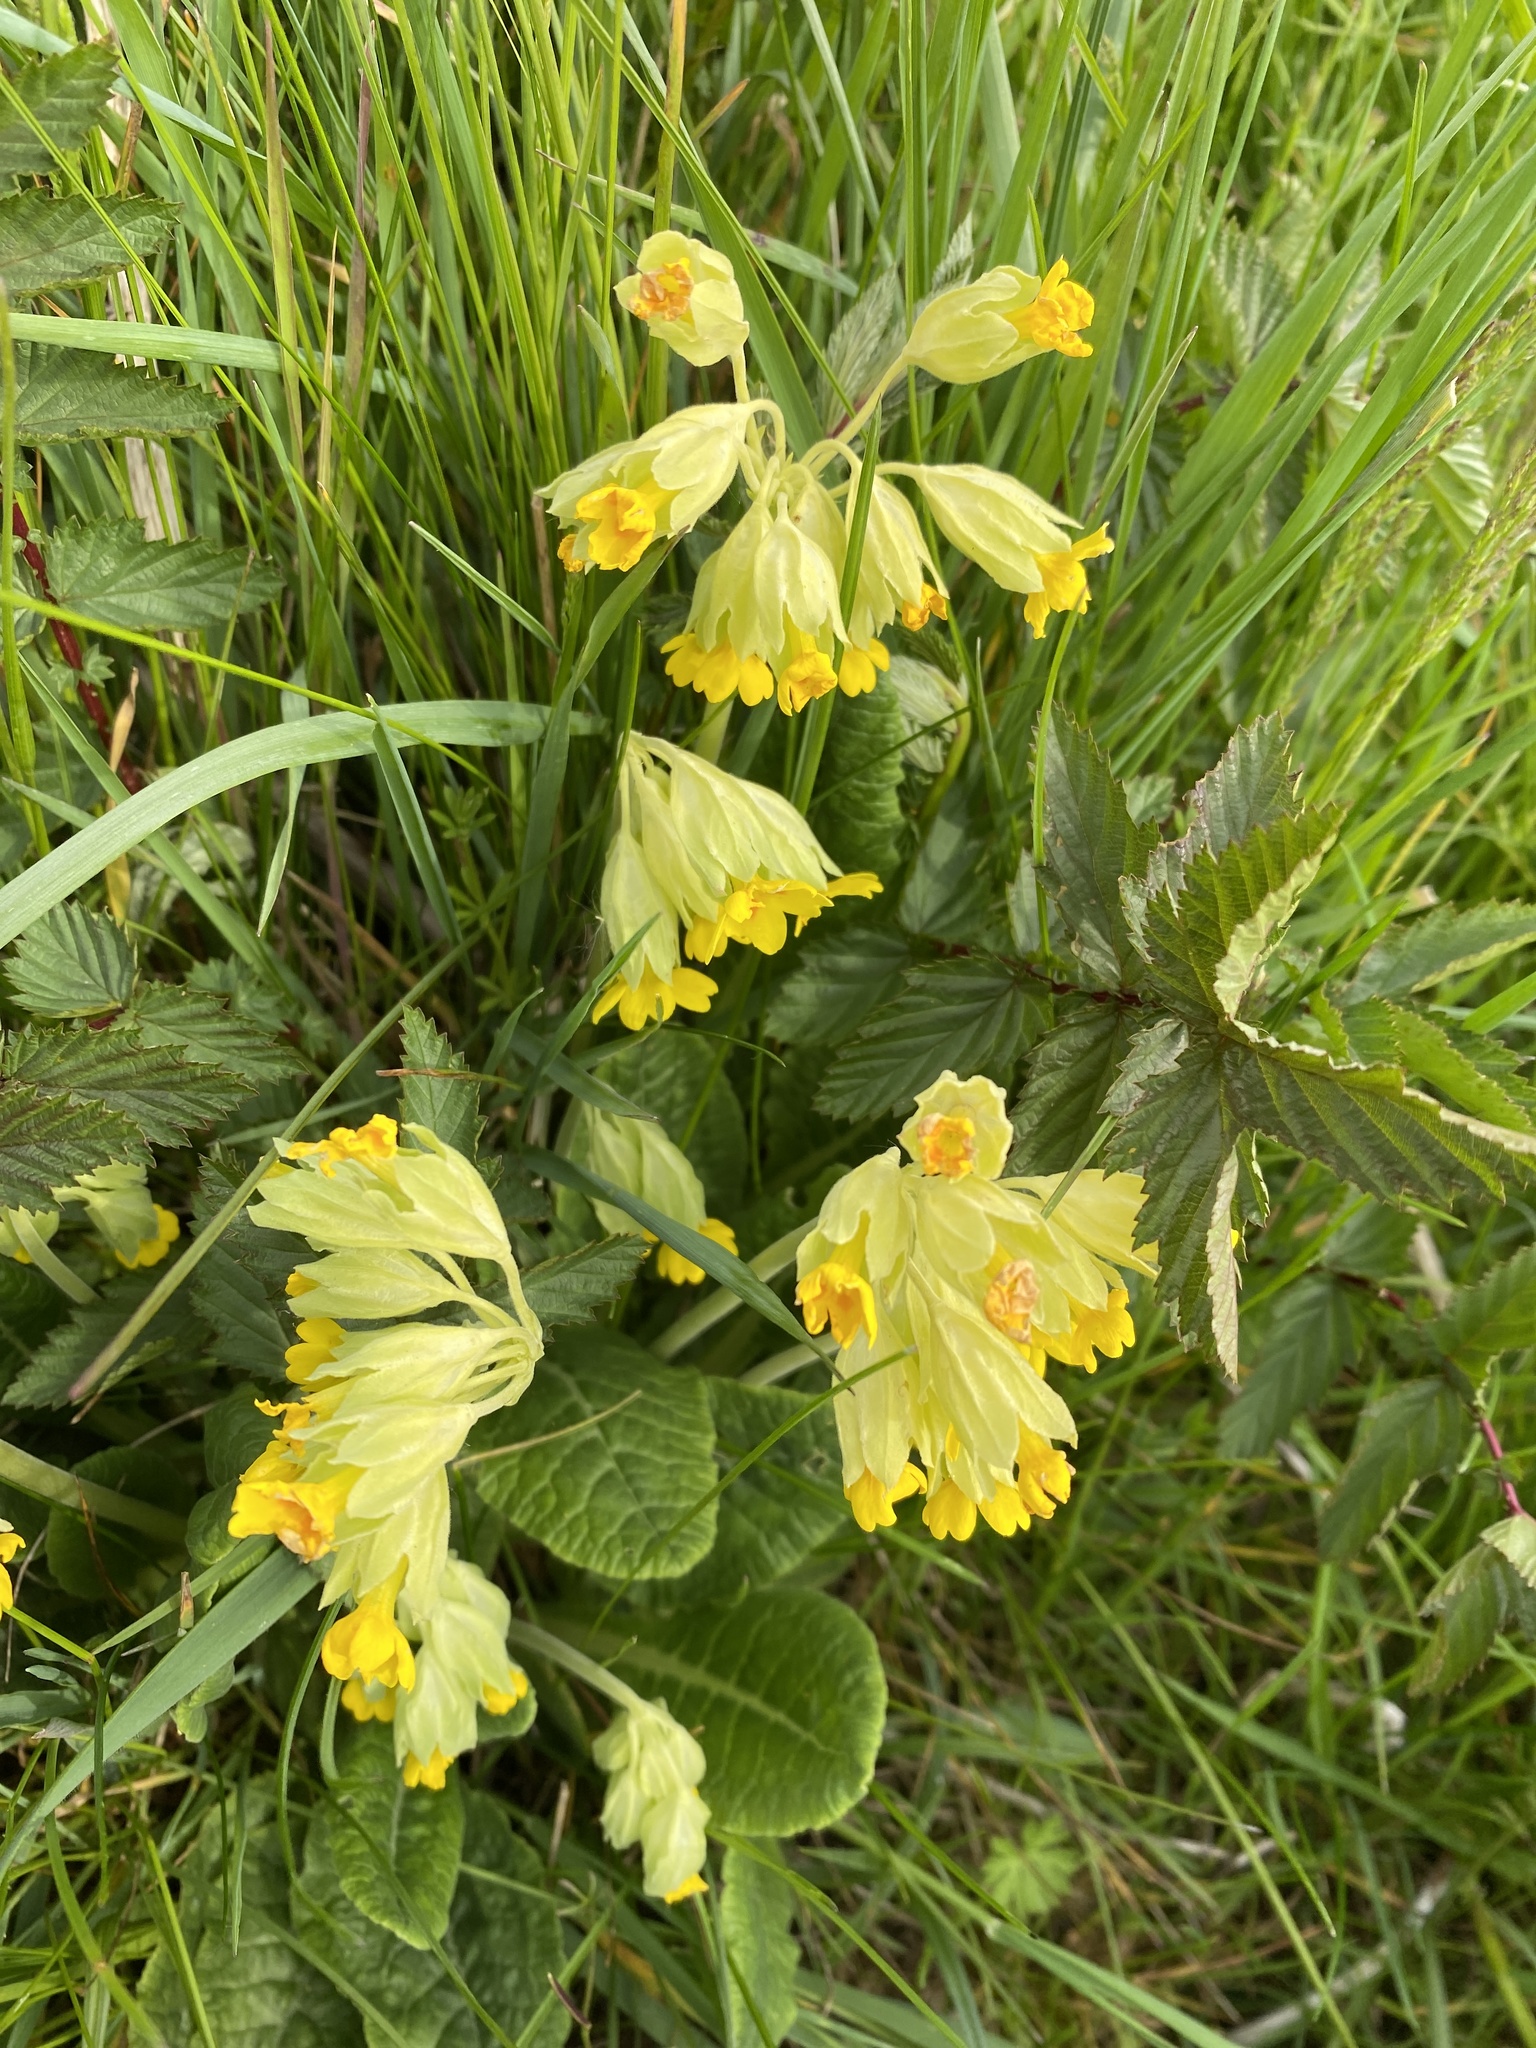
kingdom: Plantae
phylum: Tracheophyta
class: Magnoliopsida
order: Ericales
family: Primulaceae
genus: Primula
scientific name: Primula veris
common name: Cowslip
